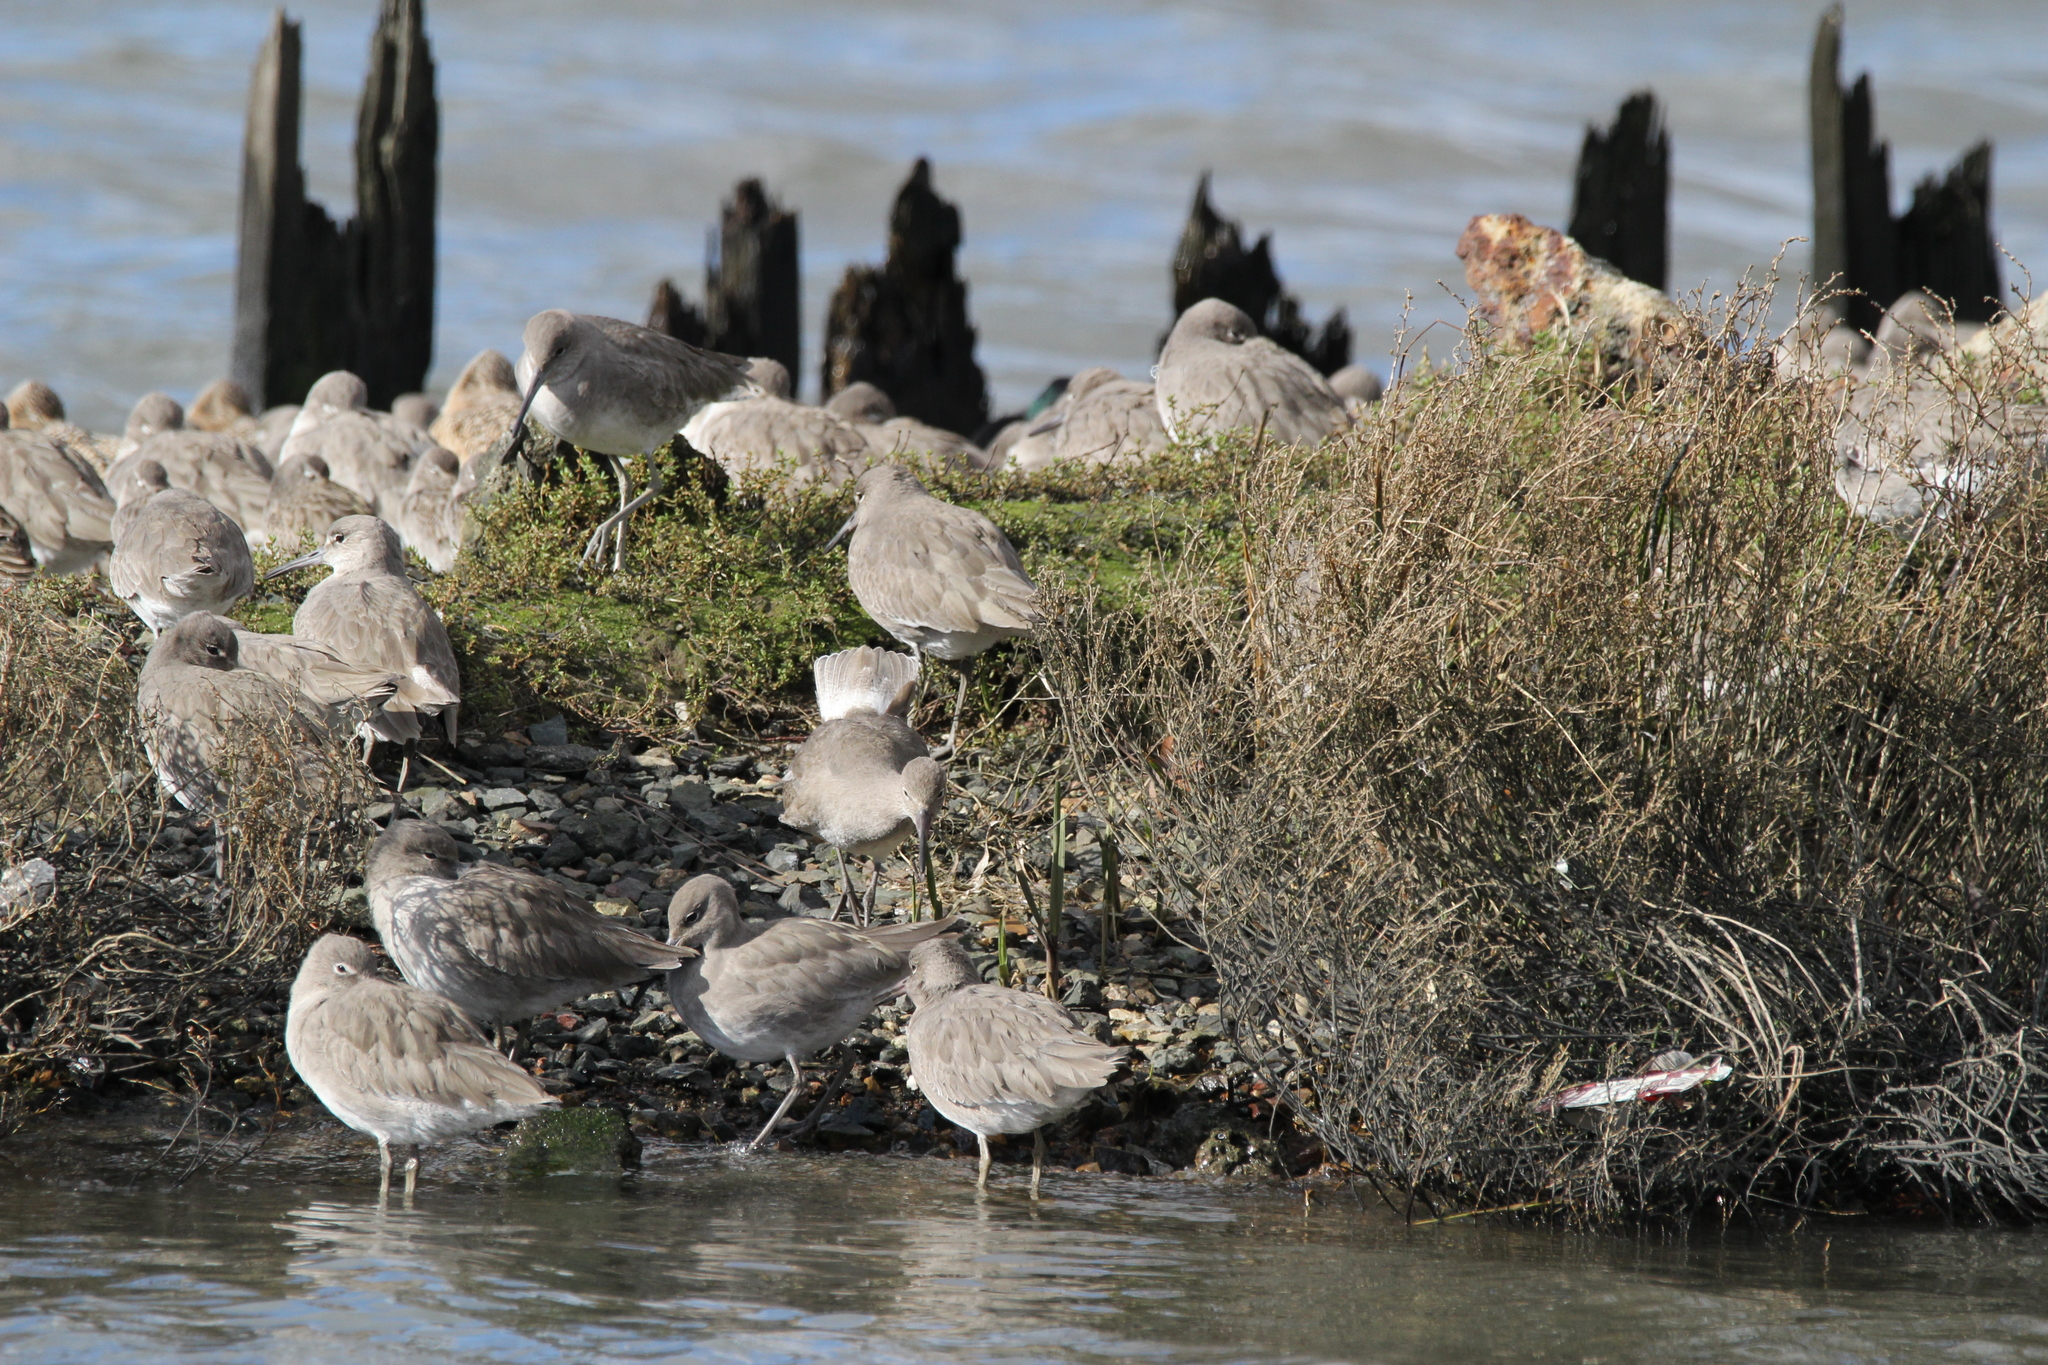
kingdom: Animalia
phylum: Chordata
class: Aves
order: Charadriiformes
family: Scolopacidae
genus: Tringa
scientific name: Tringa semipalmata
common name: Willet
